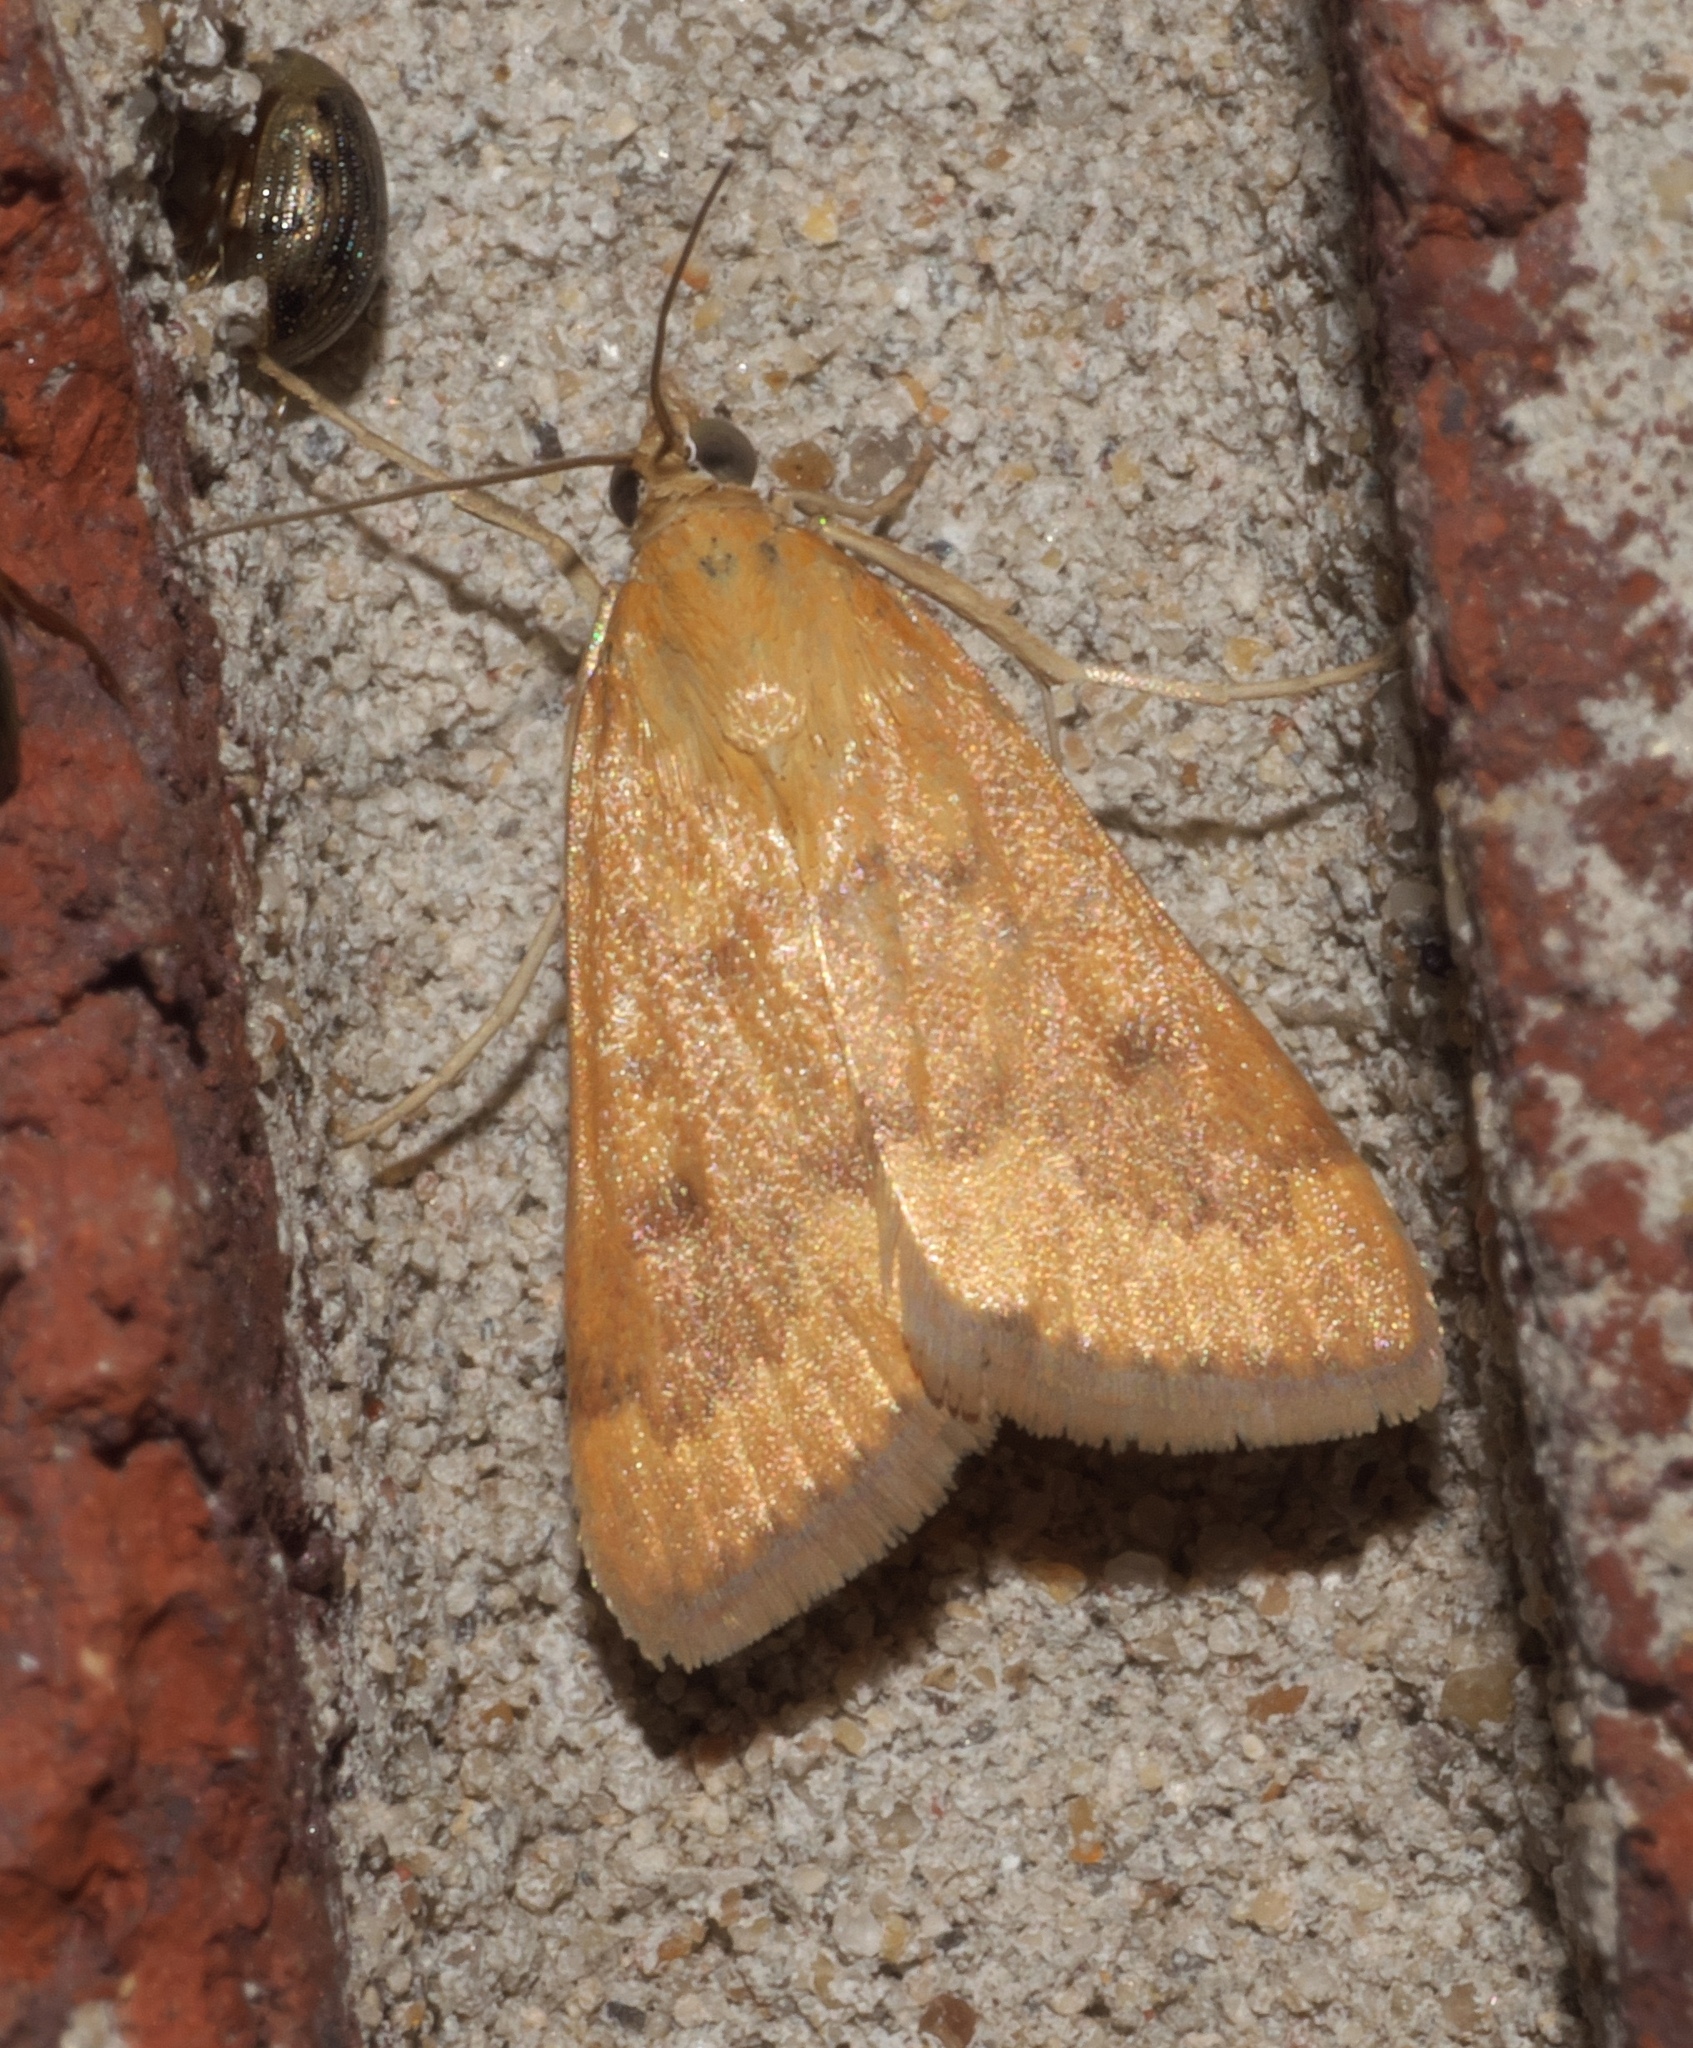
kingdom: Animalia
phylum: Arthropoda
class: Insecta
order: Lepidoptera
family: Crambidae
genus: Achyra
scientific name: Achyra rantalis
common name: Garden webworm
